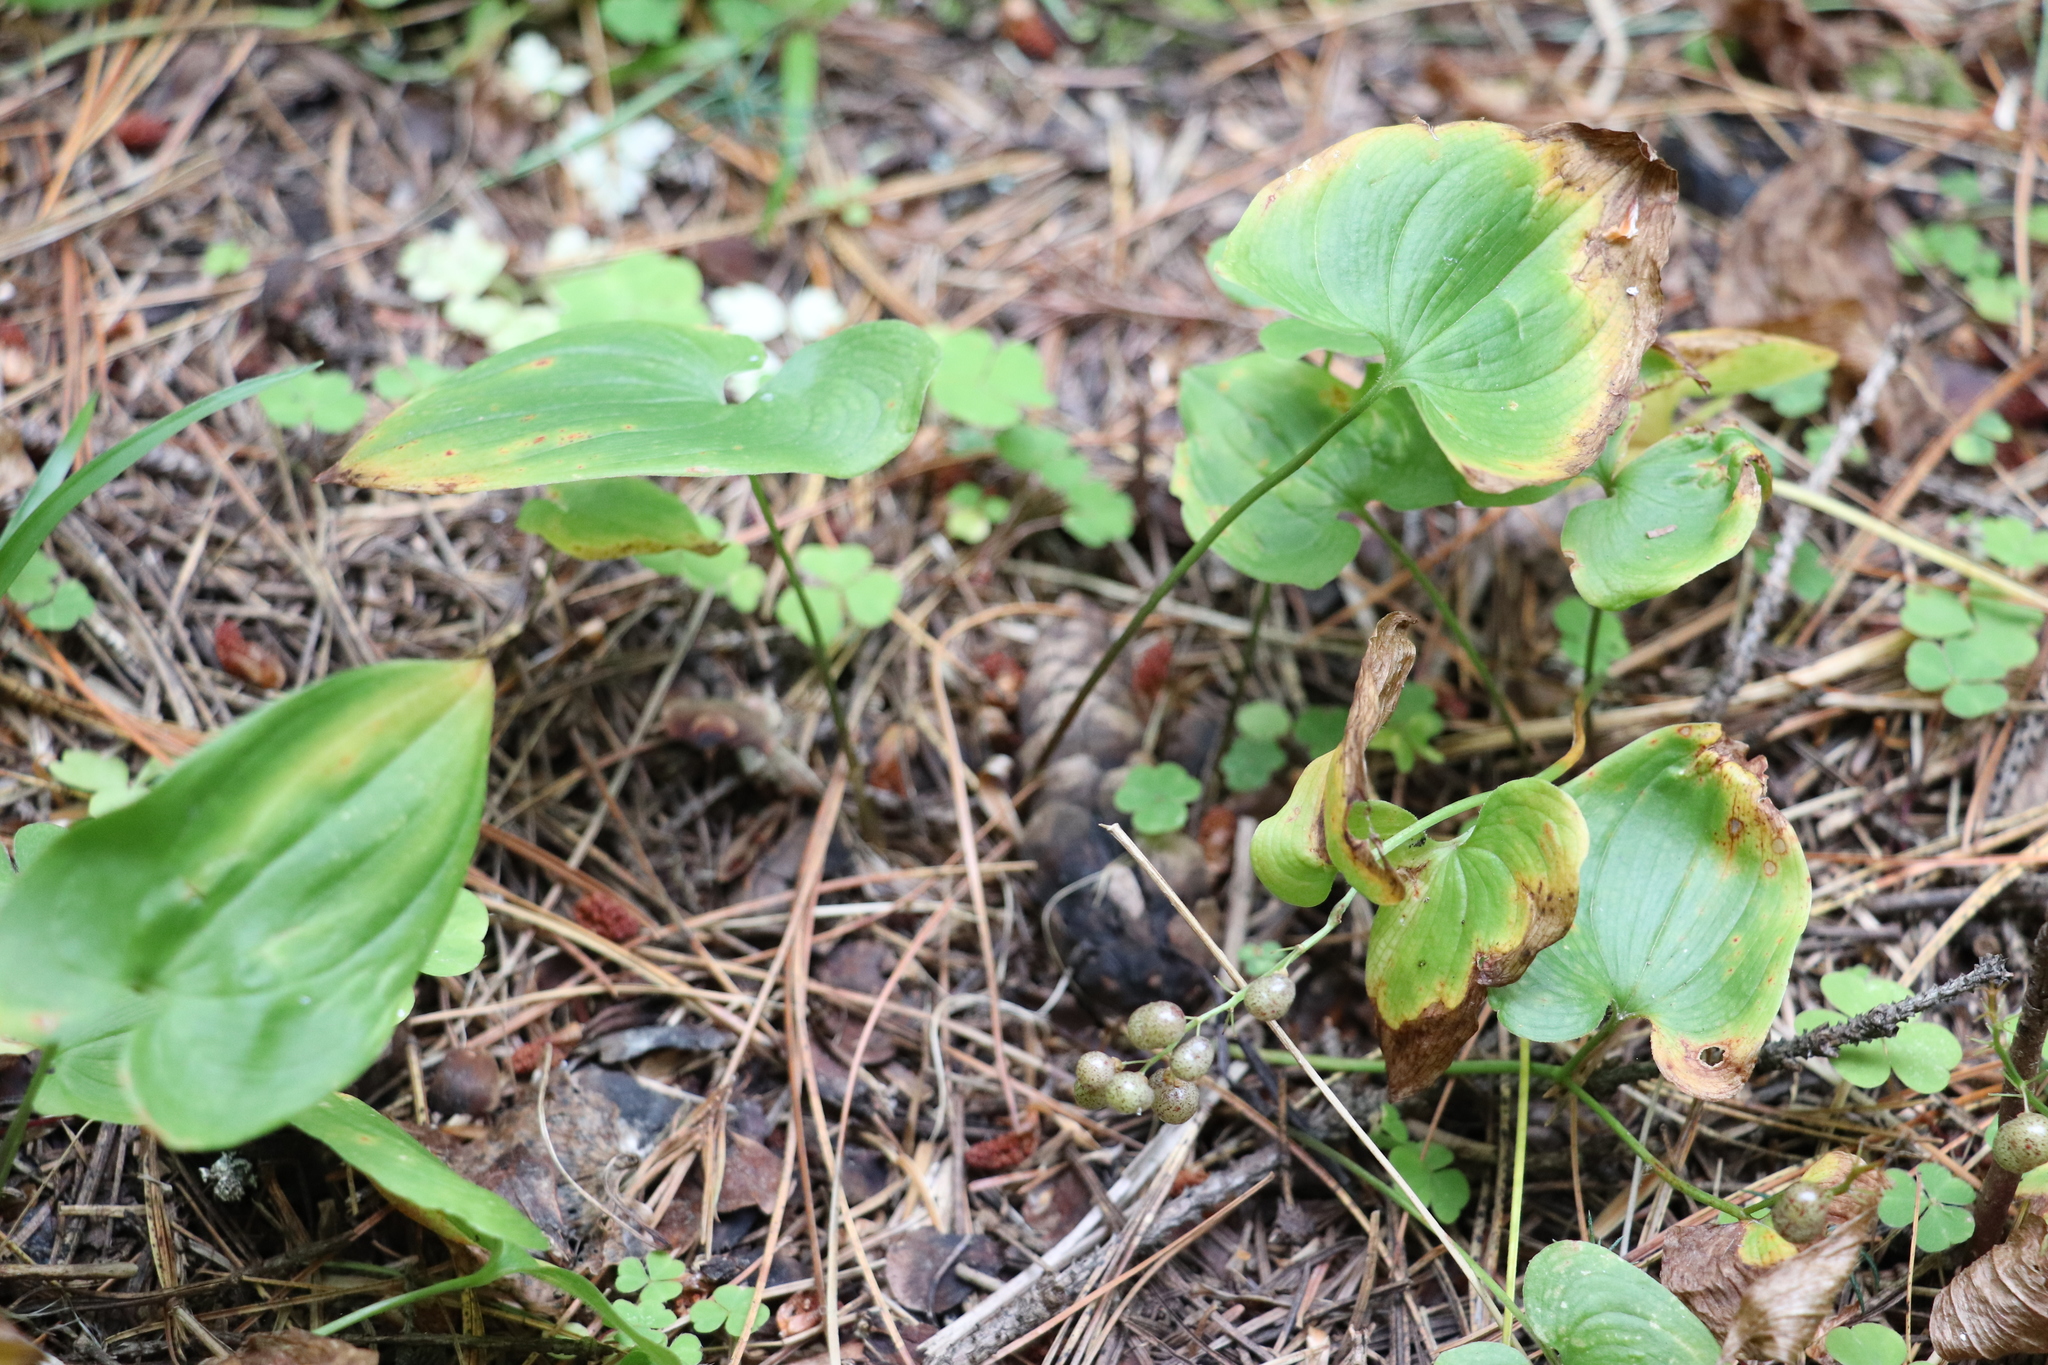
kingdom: Plantae
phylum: Tracheophyta
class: Liliopsida
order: Asparagales
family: Asparagaceae
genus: Maianthemum
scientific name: Maianthemum bifolium
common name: May lily
